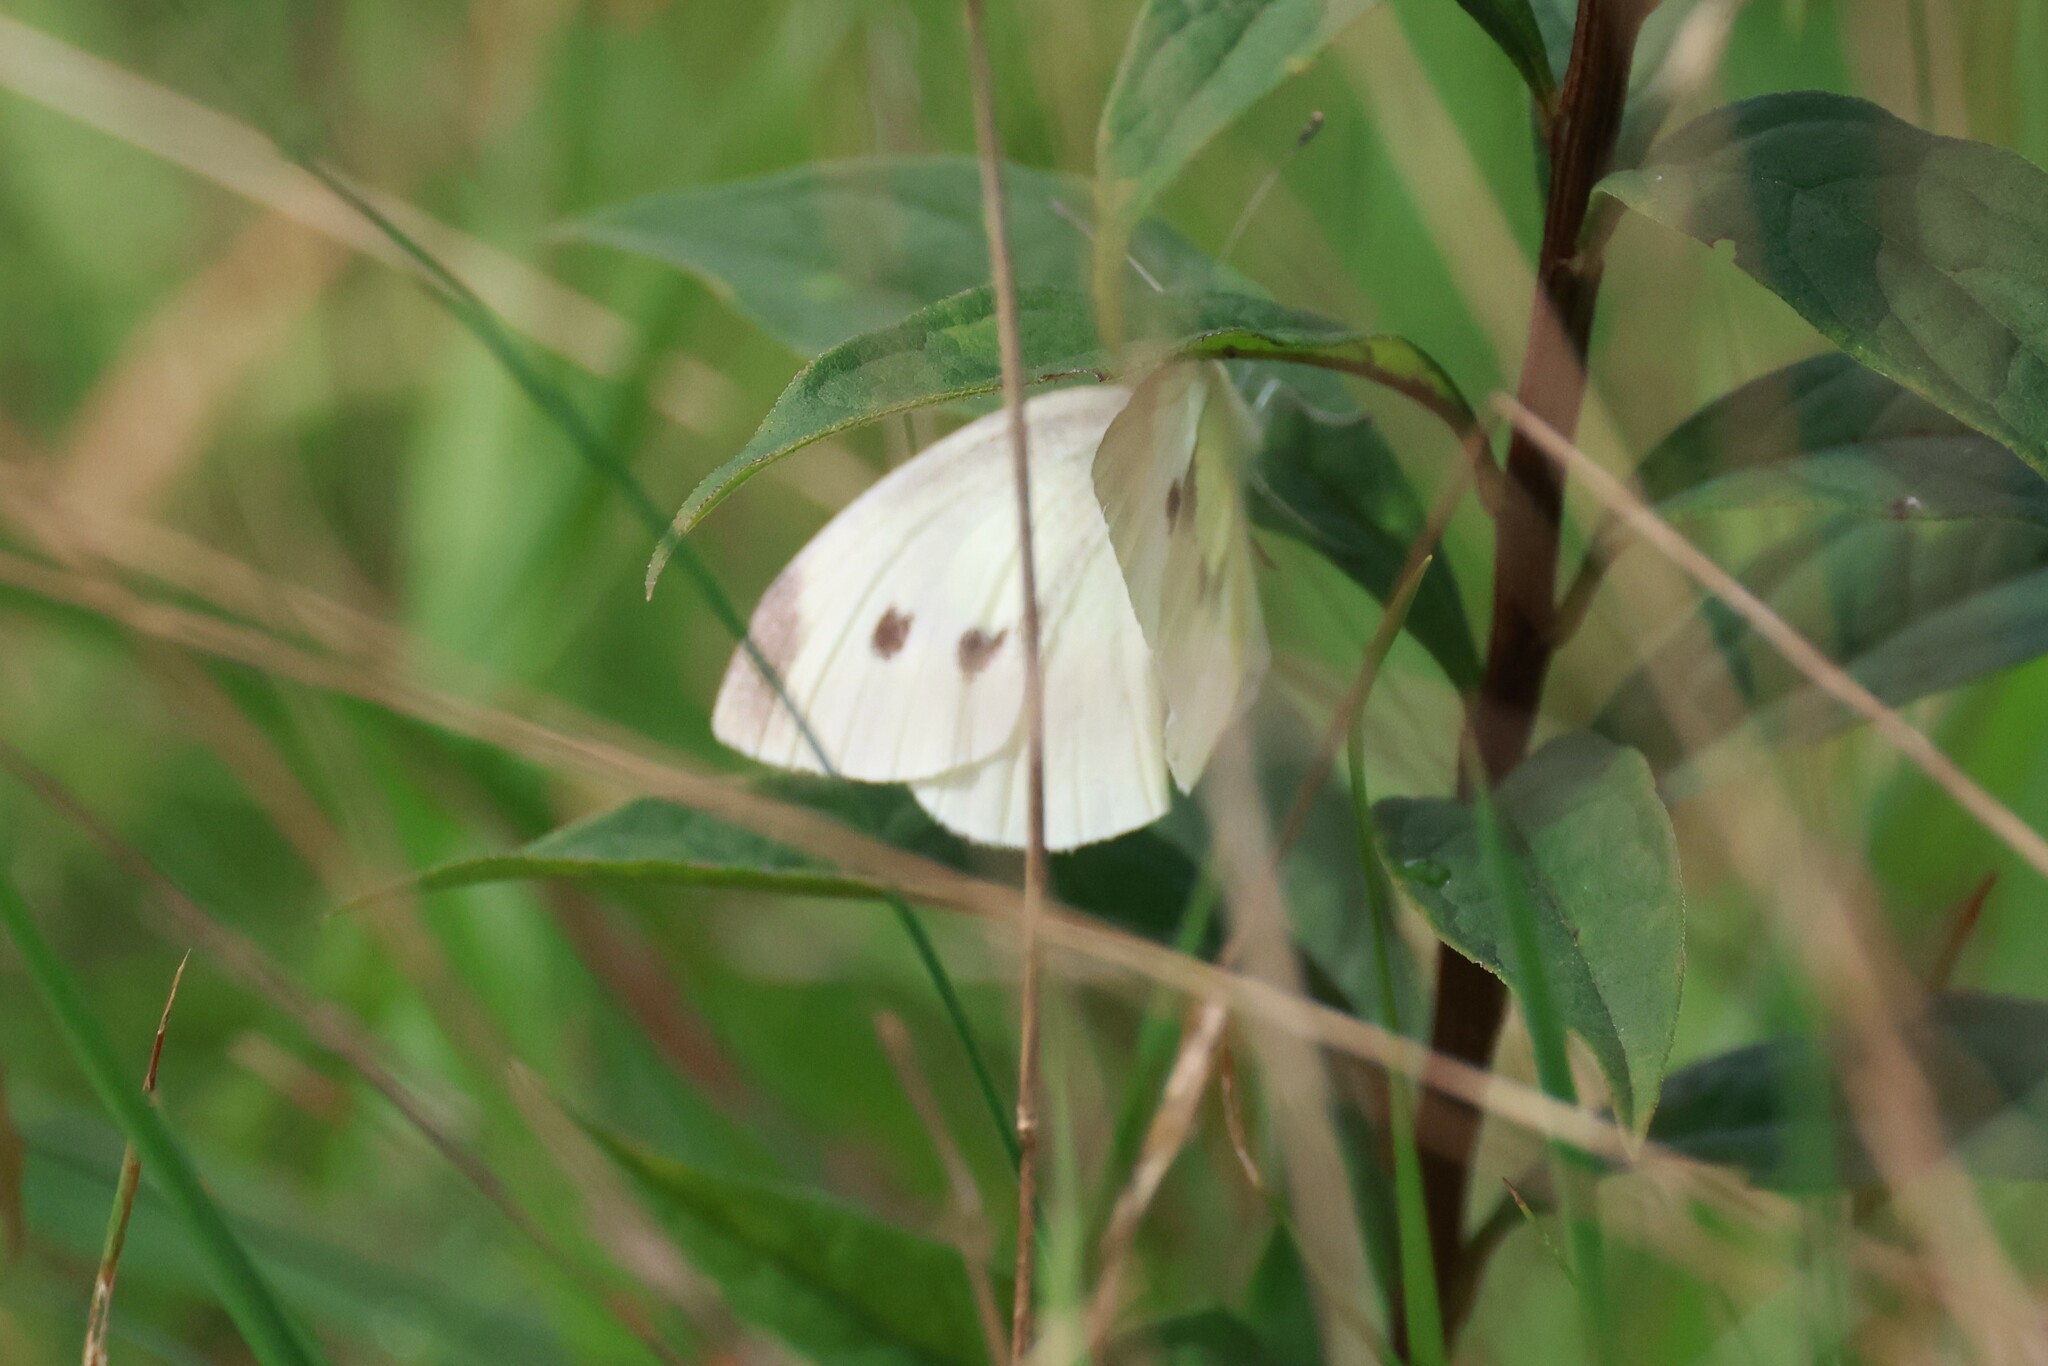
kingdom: Animalia
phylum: Arthropoda
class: Insecta
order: Lepidoptera
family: Pieridae
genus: Pieris
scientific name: Pieris rapae
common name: Small white
